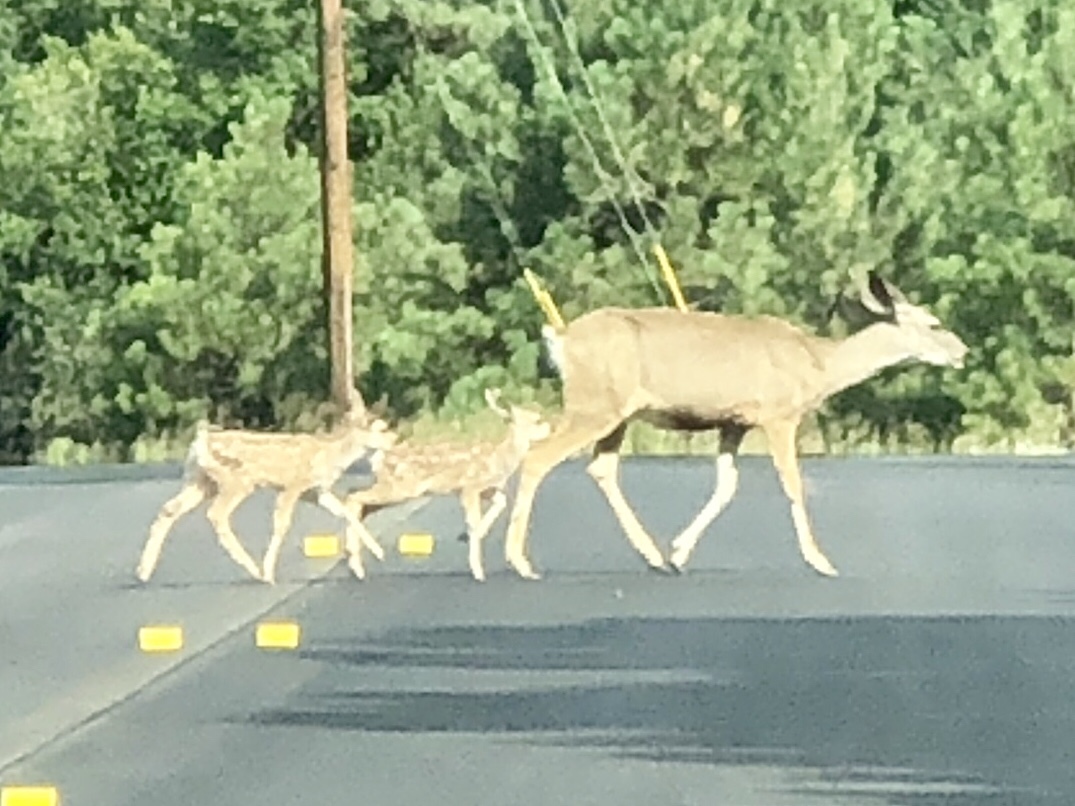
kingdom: Animalia
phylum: Chordata
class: Mammalia
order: Artiodactyla
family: Cervidae
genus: Odocoileus
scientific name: Odocoileus hemionus
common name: Mule deer
